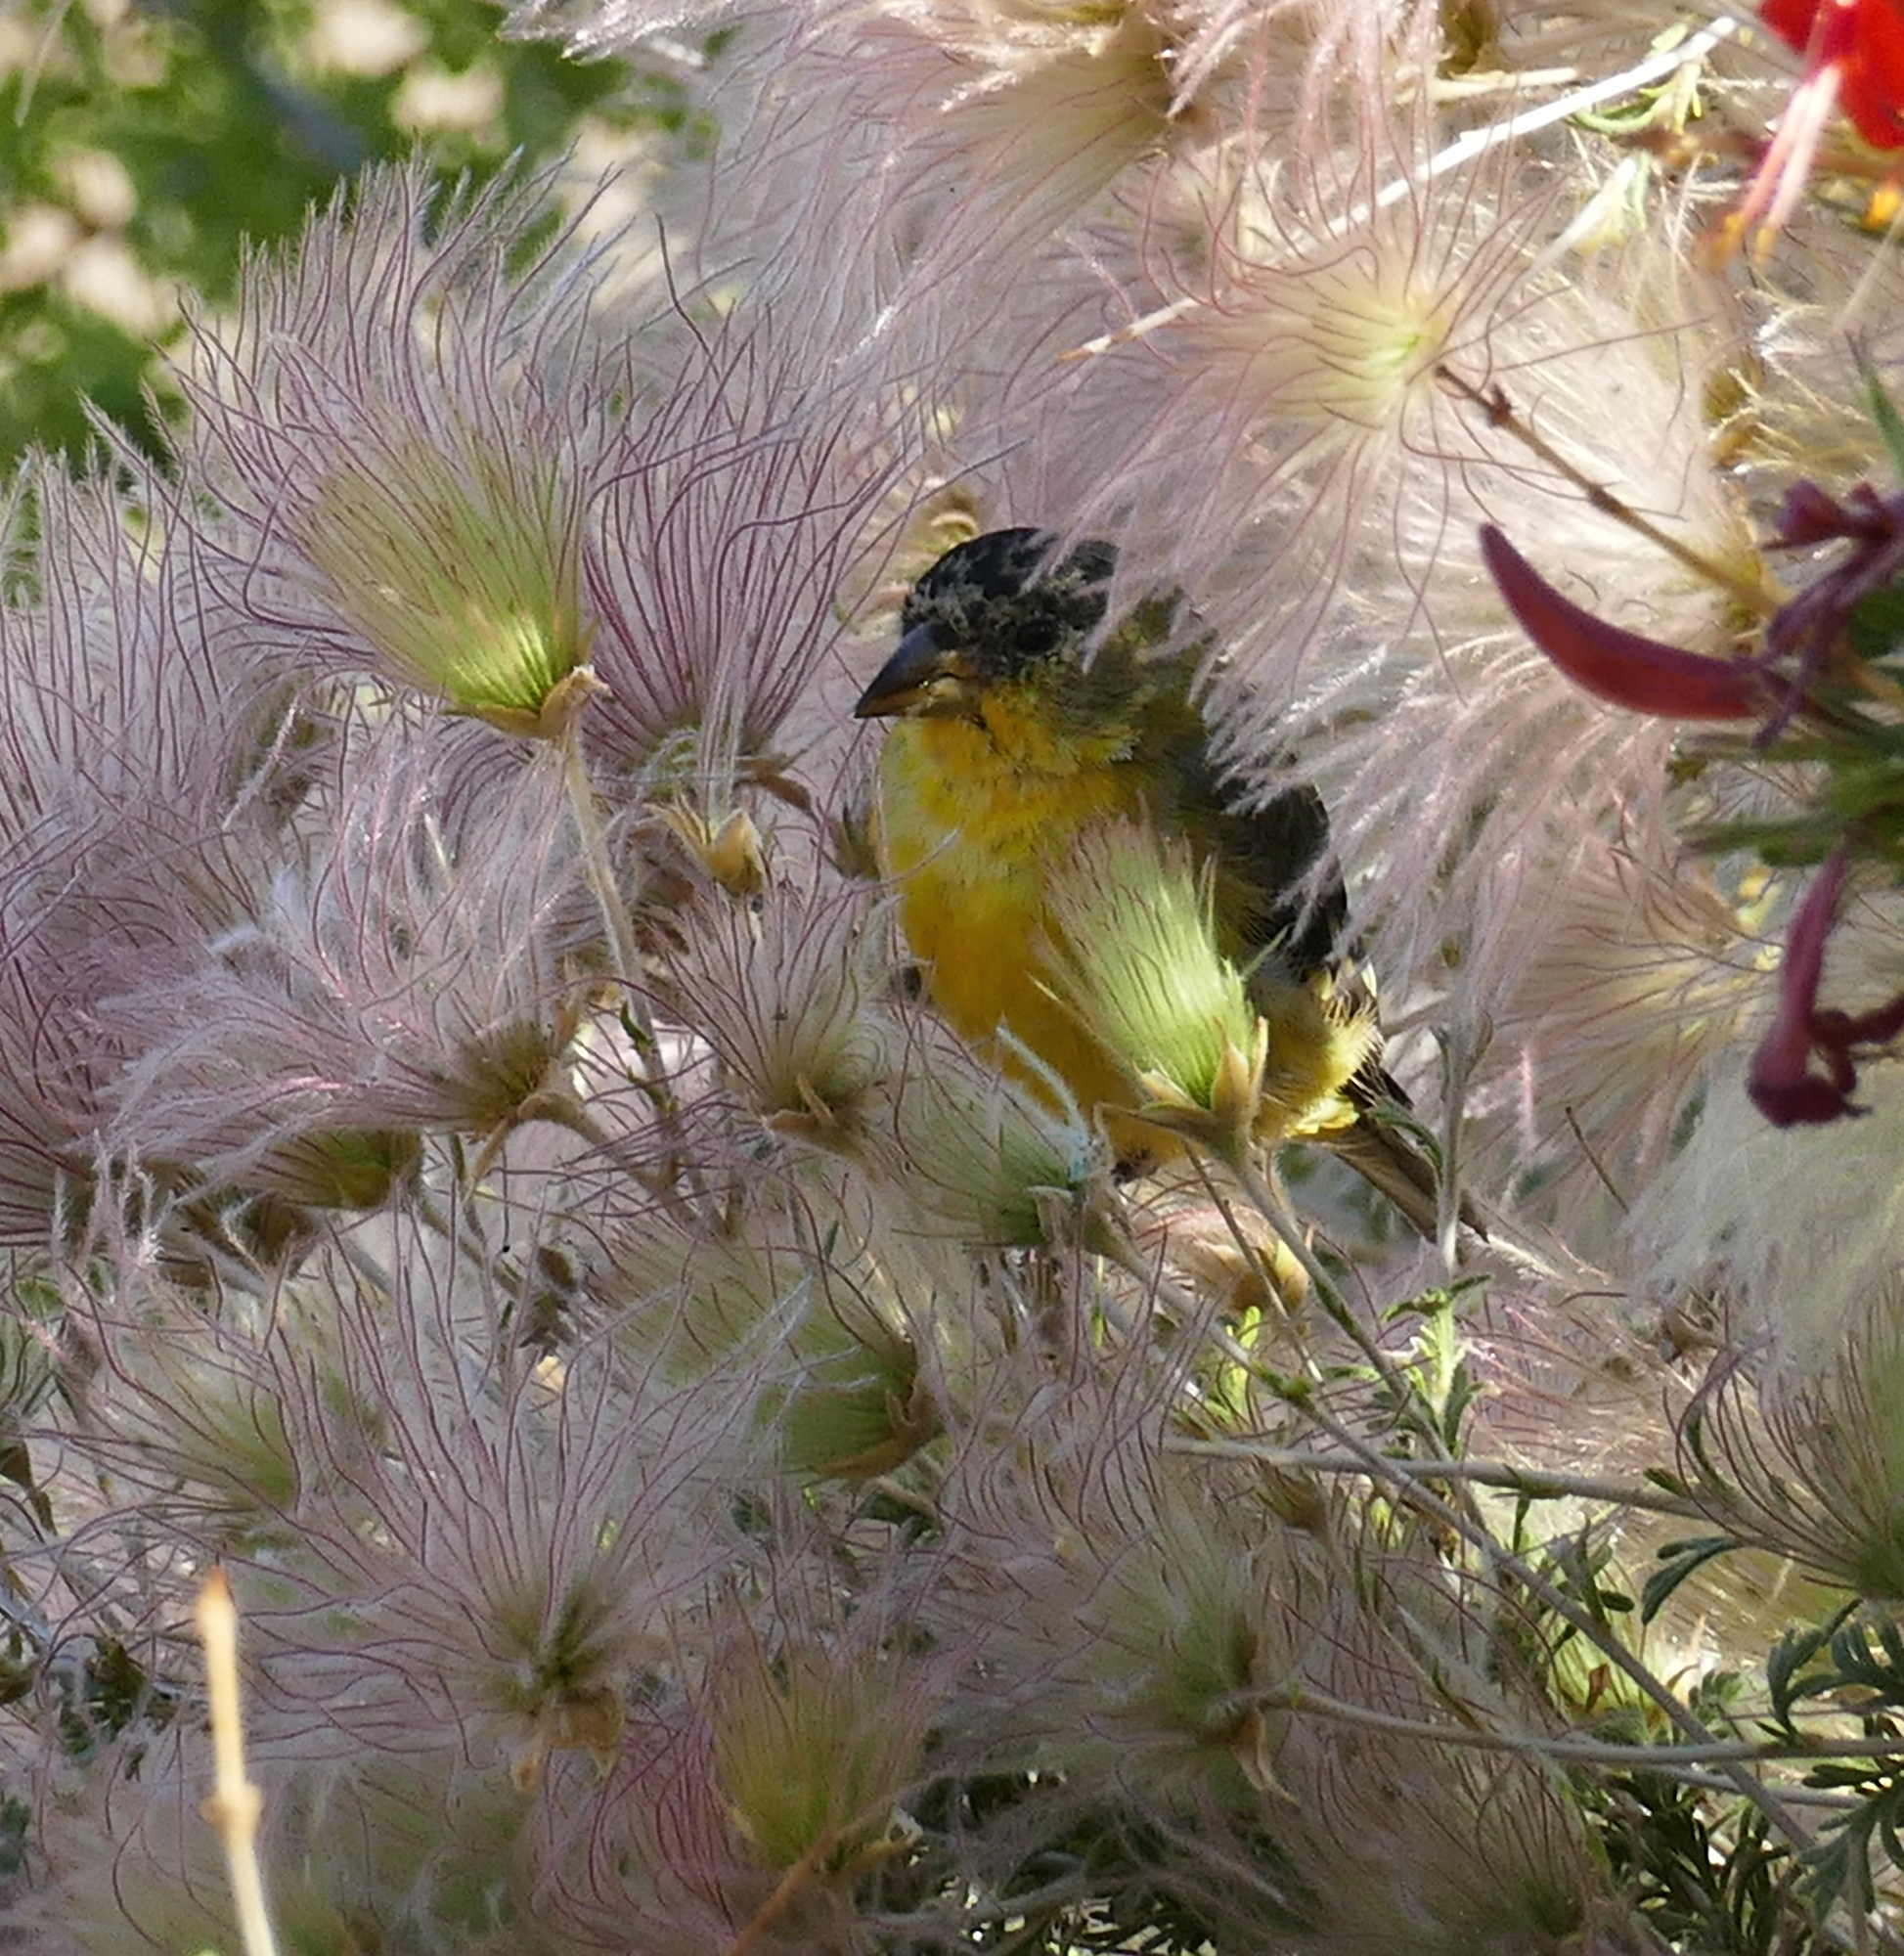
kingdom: Animalia
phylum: Chordata
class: Aves
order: Passeriformes
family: Fringillidae
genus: Spinus
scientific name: Spinus psaltria
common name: Lesser goldfinch
